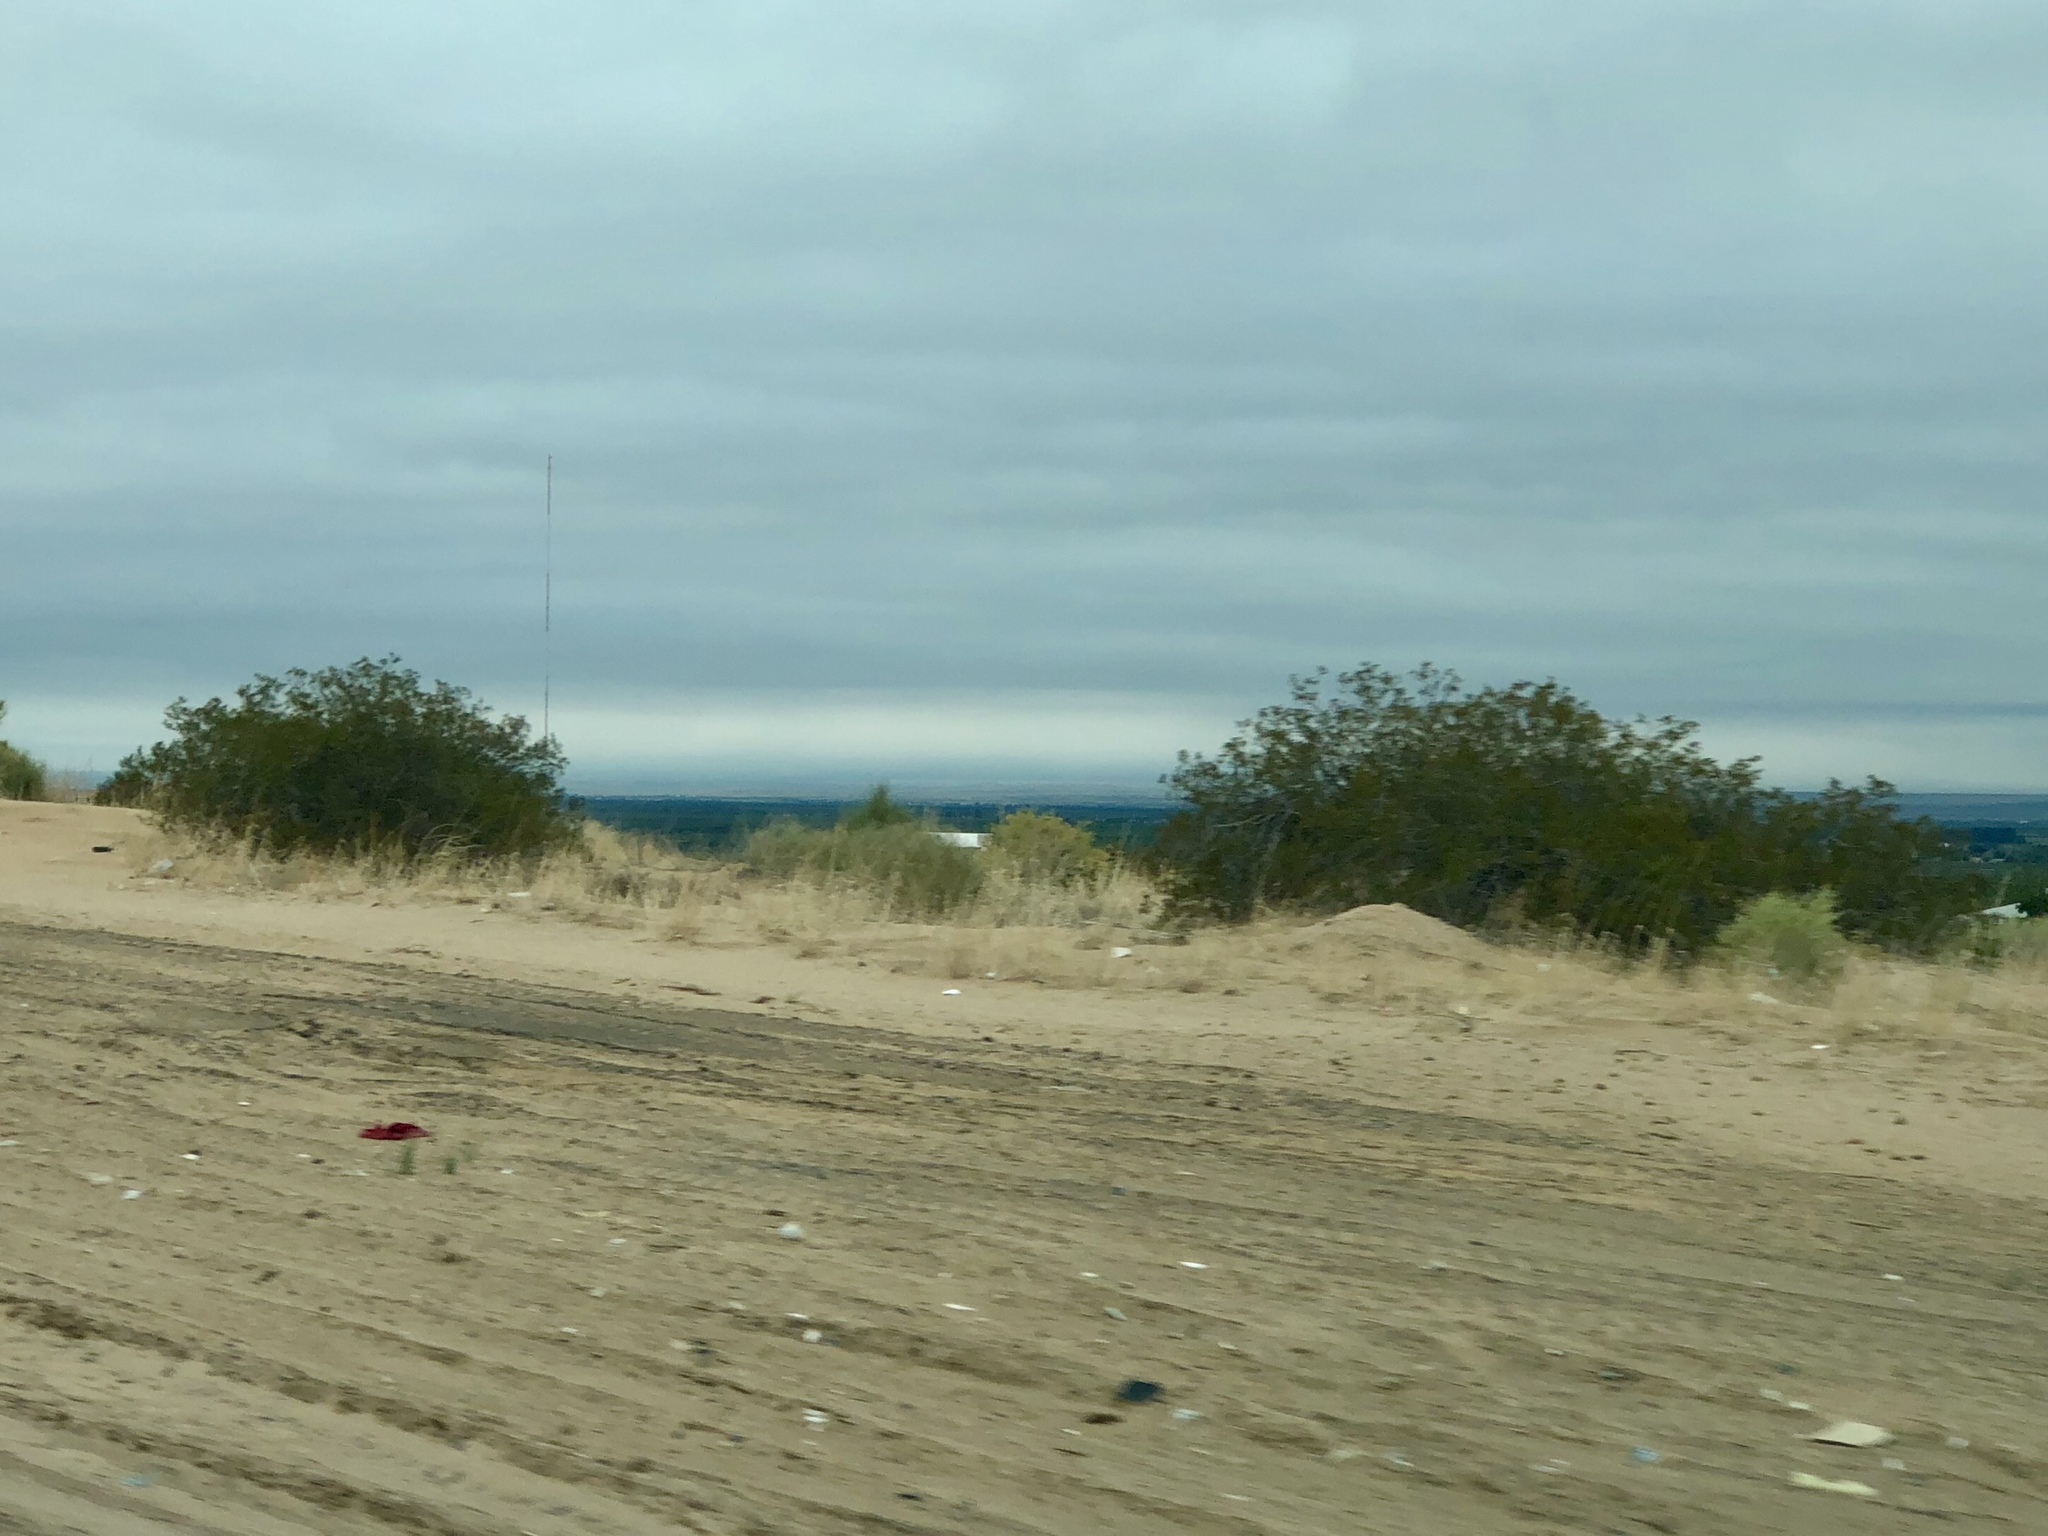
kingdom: Plantae
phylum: Tracheophyta
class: Magnoliopsida
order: Zygophyllales
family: Zygophyllaceae
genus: Larrea
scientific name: Larrea tridentata
